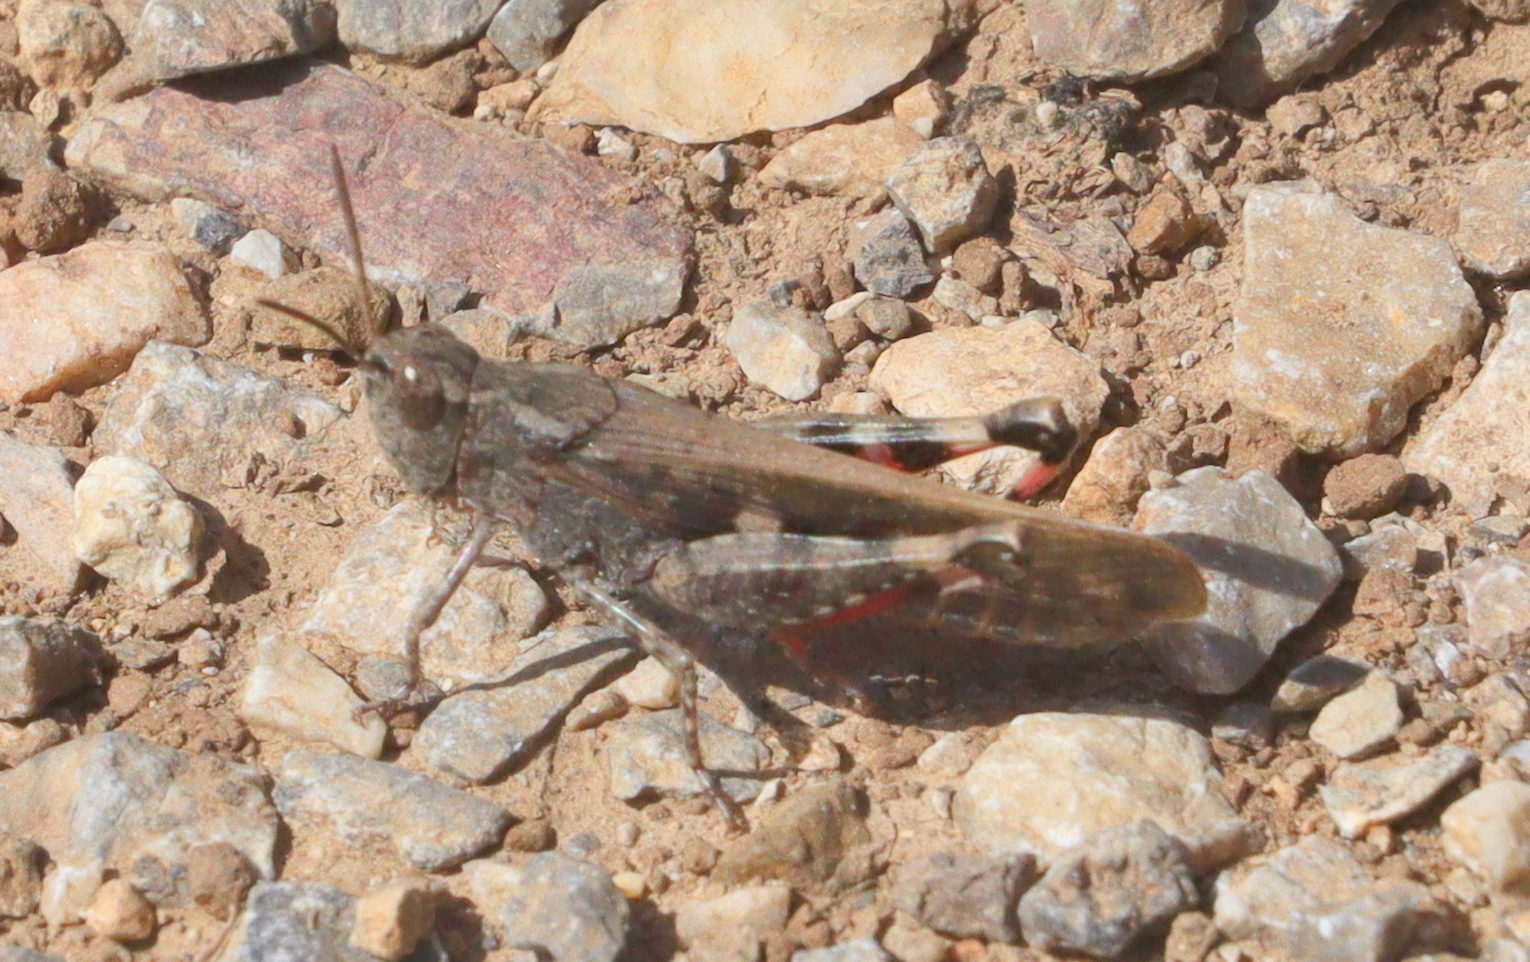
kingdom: Animalia
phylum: Arthropoda
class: Insecta
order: Orthoptera
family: Acrididae
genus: Aiolopus
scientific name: Aiolopus strepens
